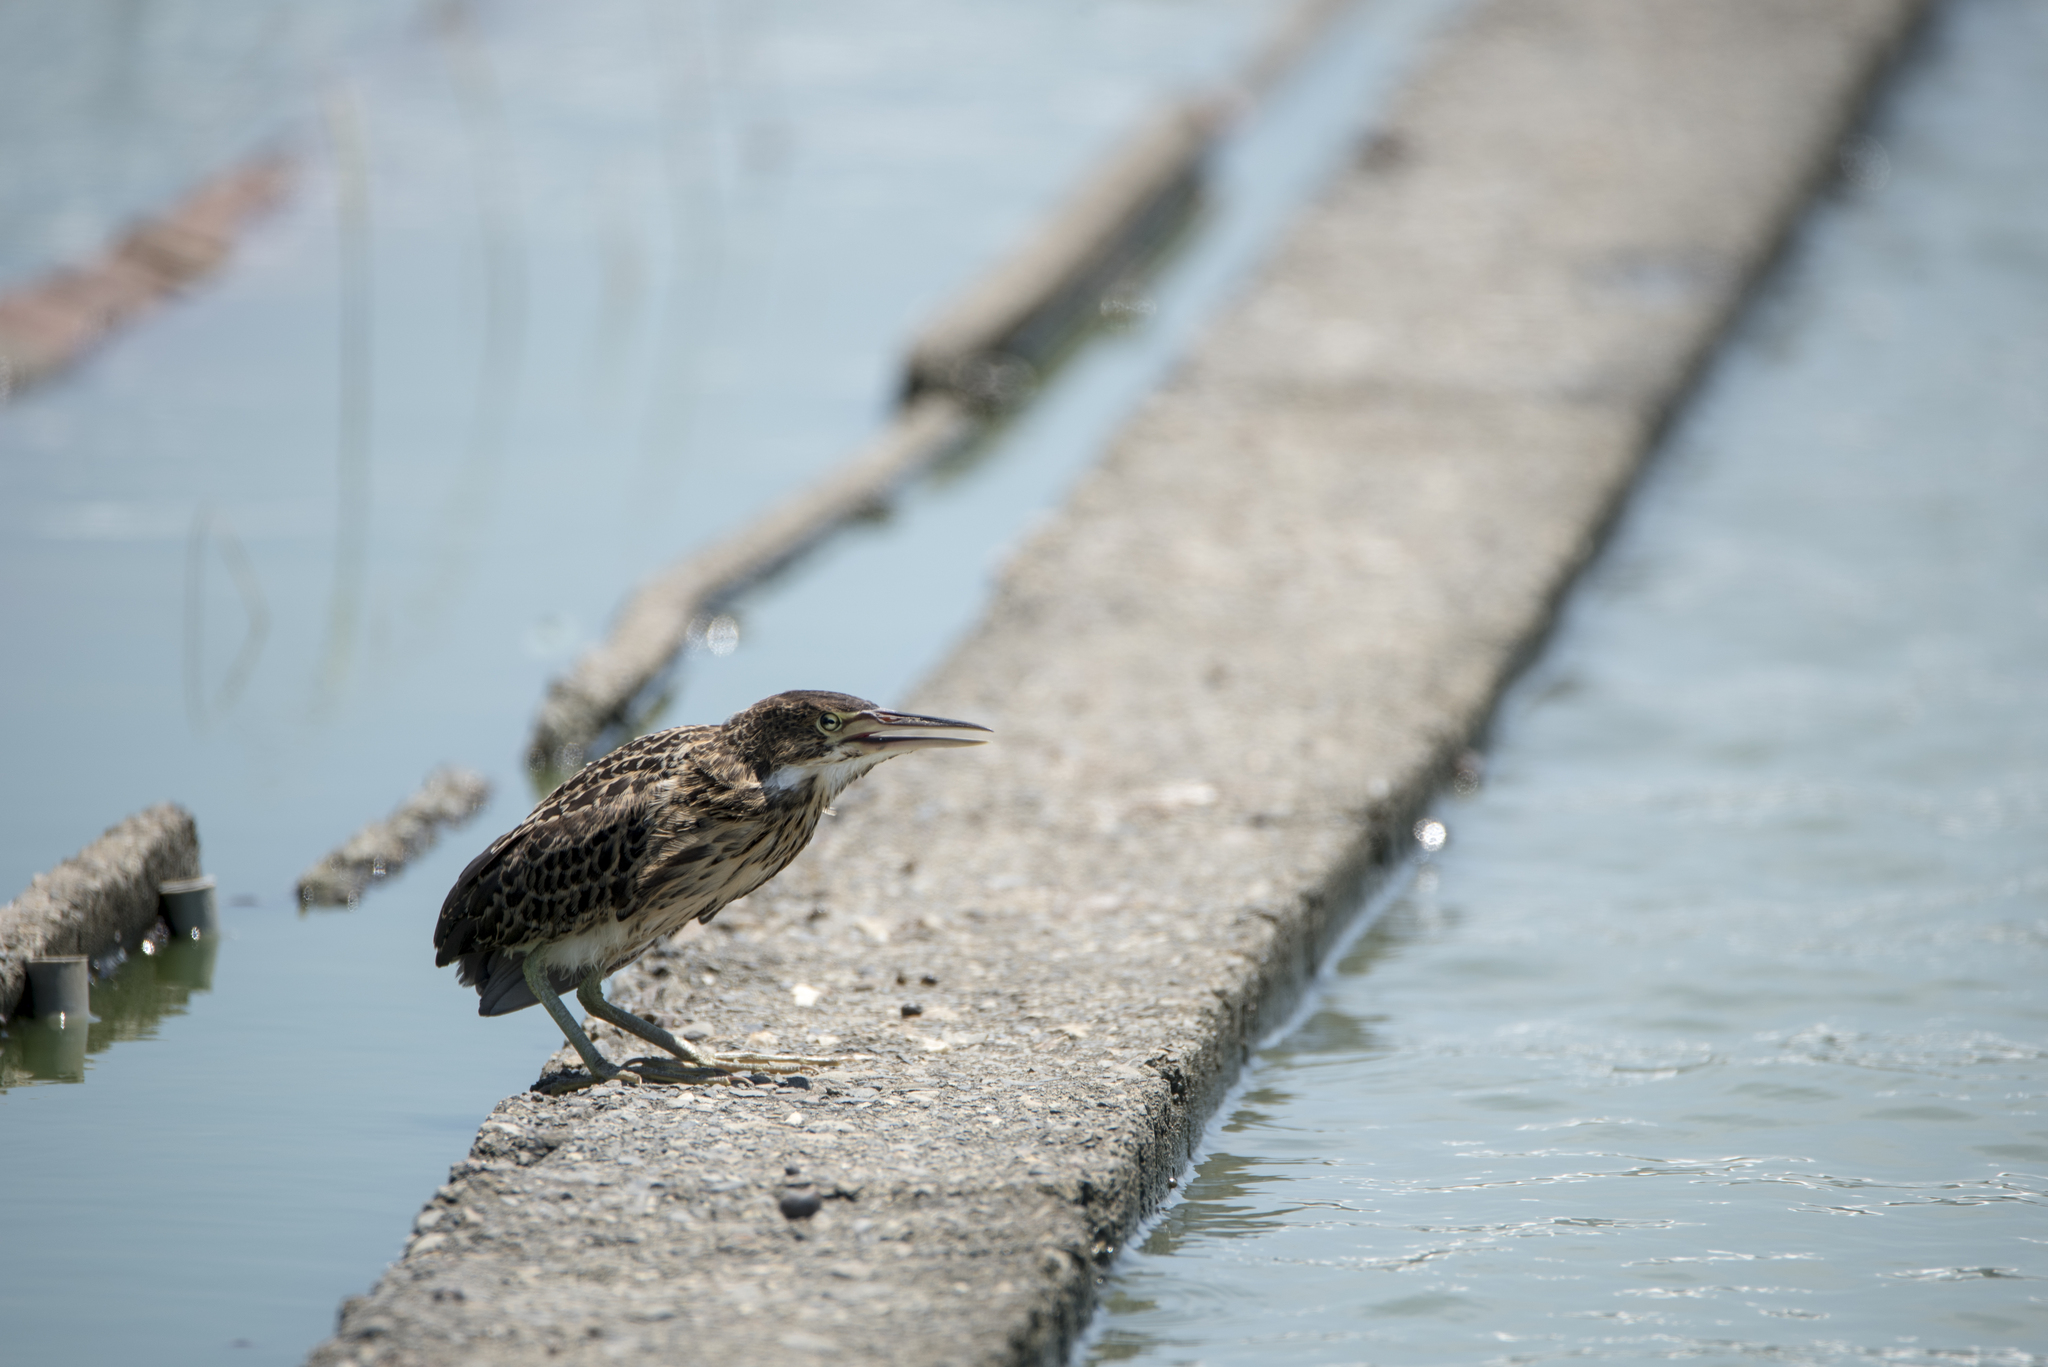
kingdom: Animalia
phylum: Chordata
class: Aves
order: Pelecaniformes
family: Ardeidae
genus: Ixobrychus
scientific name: Ixobrychus cinnamomeus
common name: Cinnamon bittern
